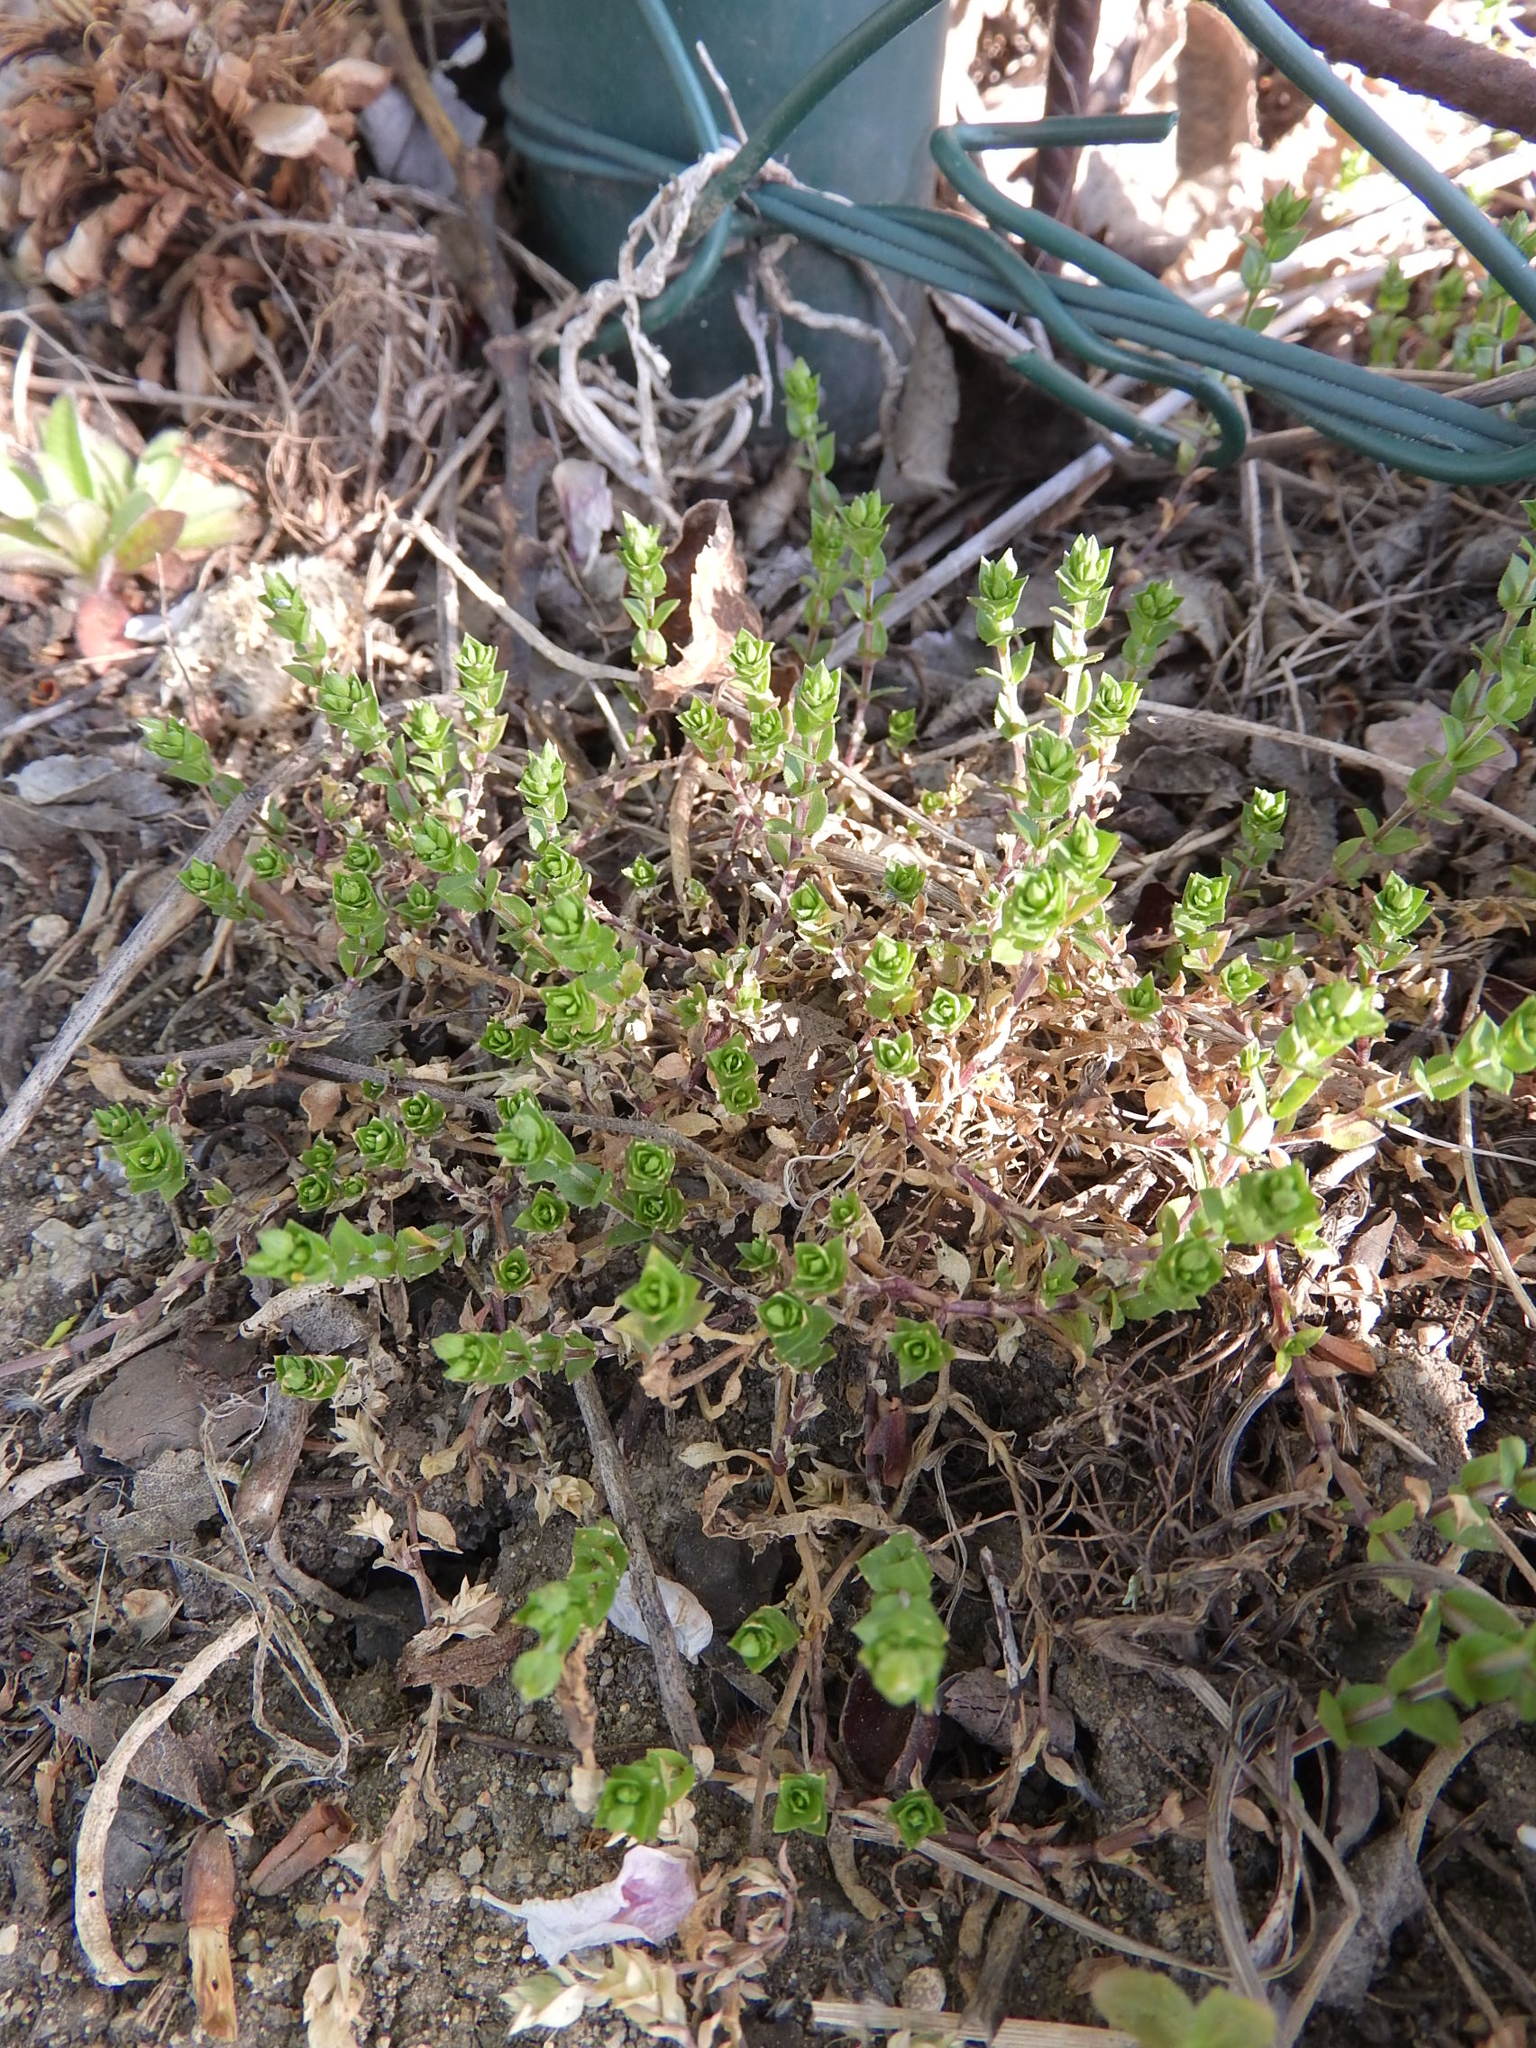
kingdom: Plantae
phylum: Tracheophyta
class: Magnoliopsida
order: Caryophyllales
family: Caryophyllaceae
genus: Arenaria
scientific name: Arenaria serpyllifolia
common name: Thyme-leaved sandwort
